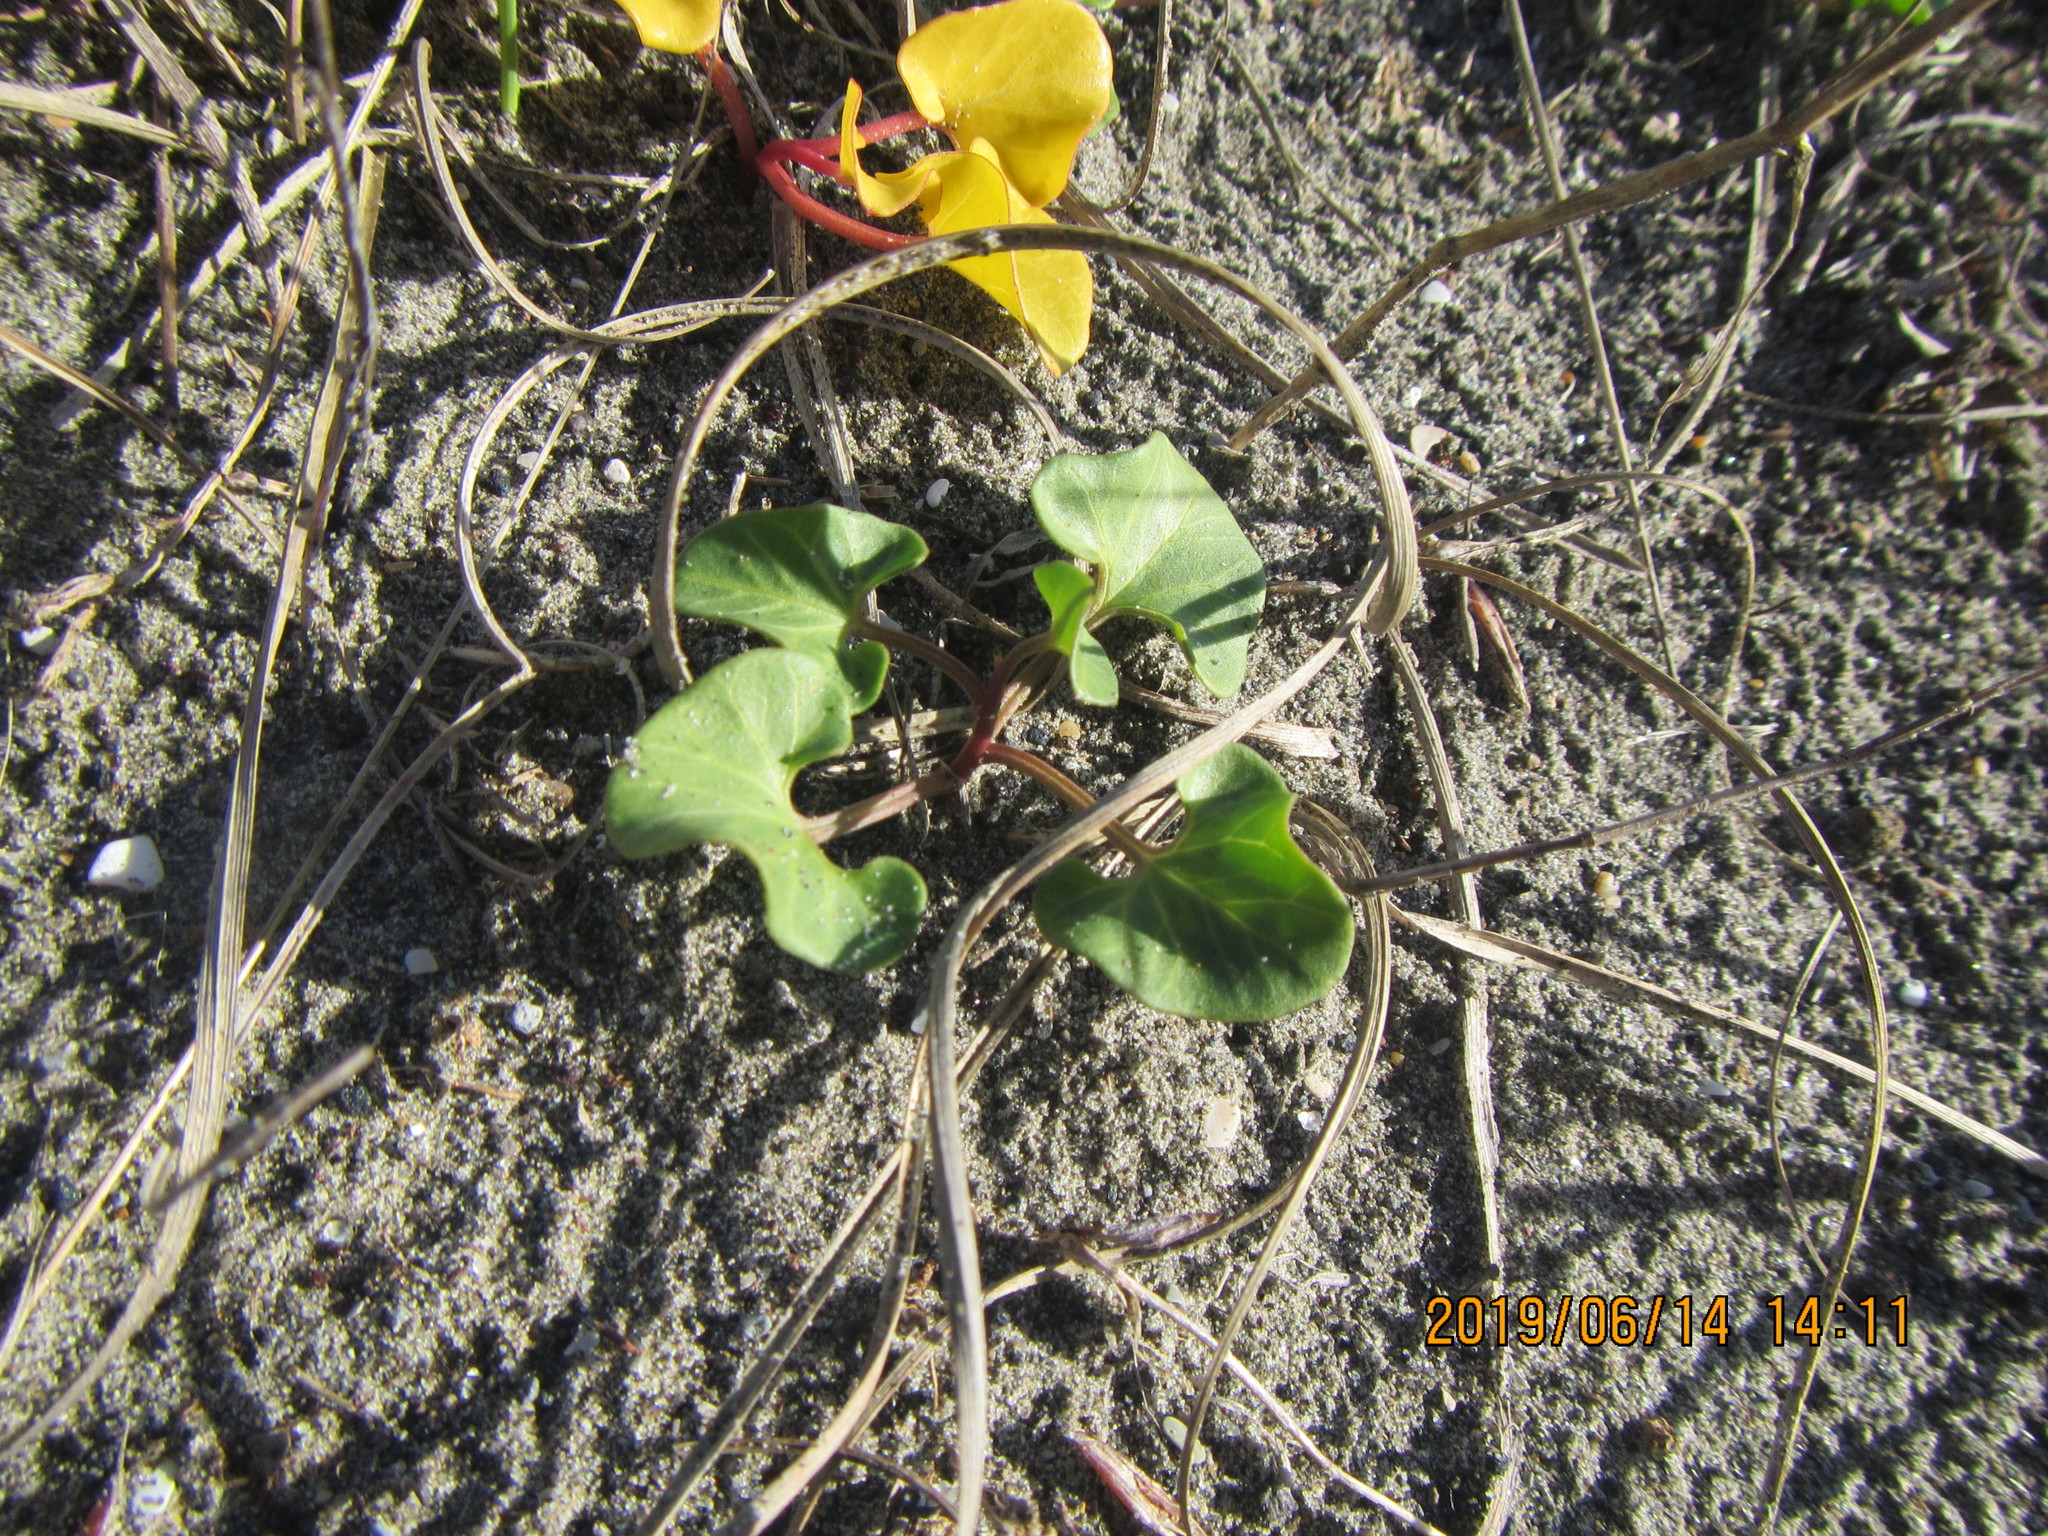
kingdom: Plantae
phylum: Tracheophyta
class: Magnoliopsida
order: Solanales
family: Convolvulaceae
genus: Calystegia
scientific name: Calystegia soldanella
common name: Sea bindweed
